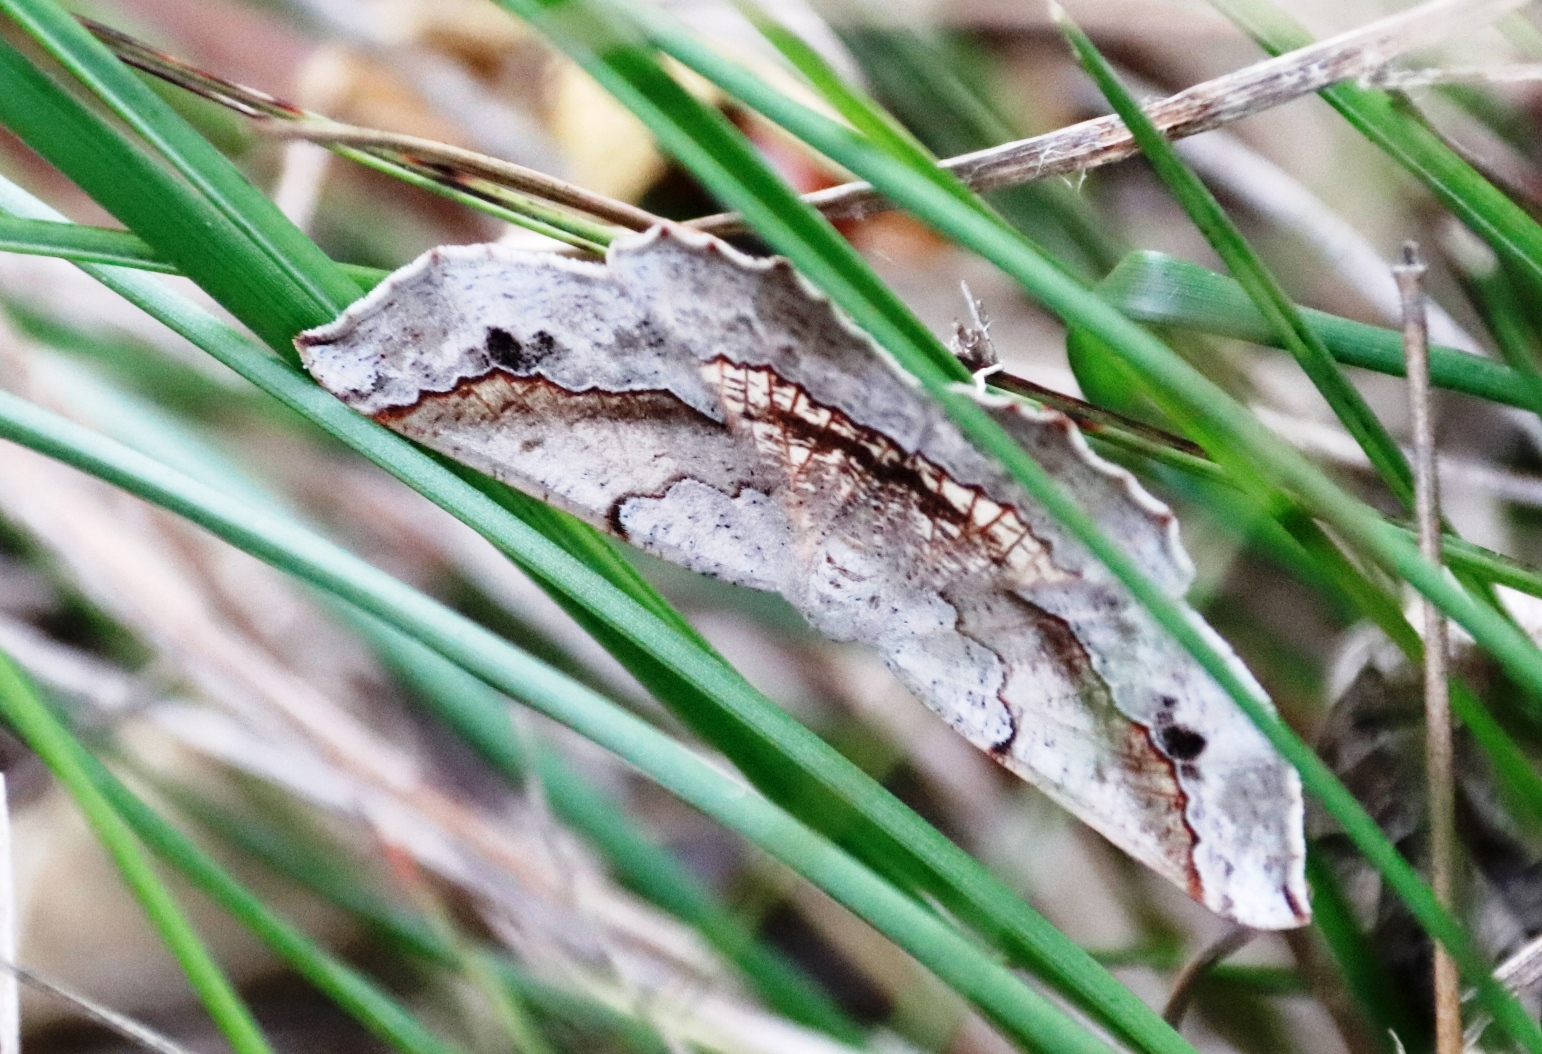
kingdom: Animalia
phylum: Arthropoda
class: Insecta
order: Lepidoptera
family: Geometridae
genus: Drepanogynis
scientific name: Drepanogynis mixtaria
